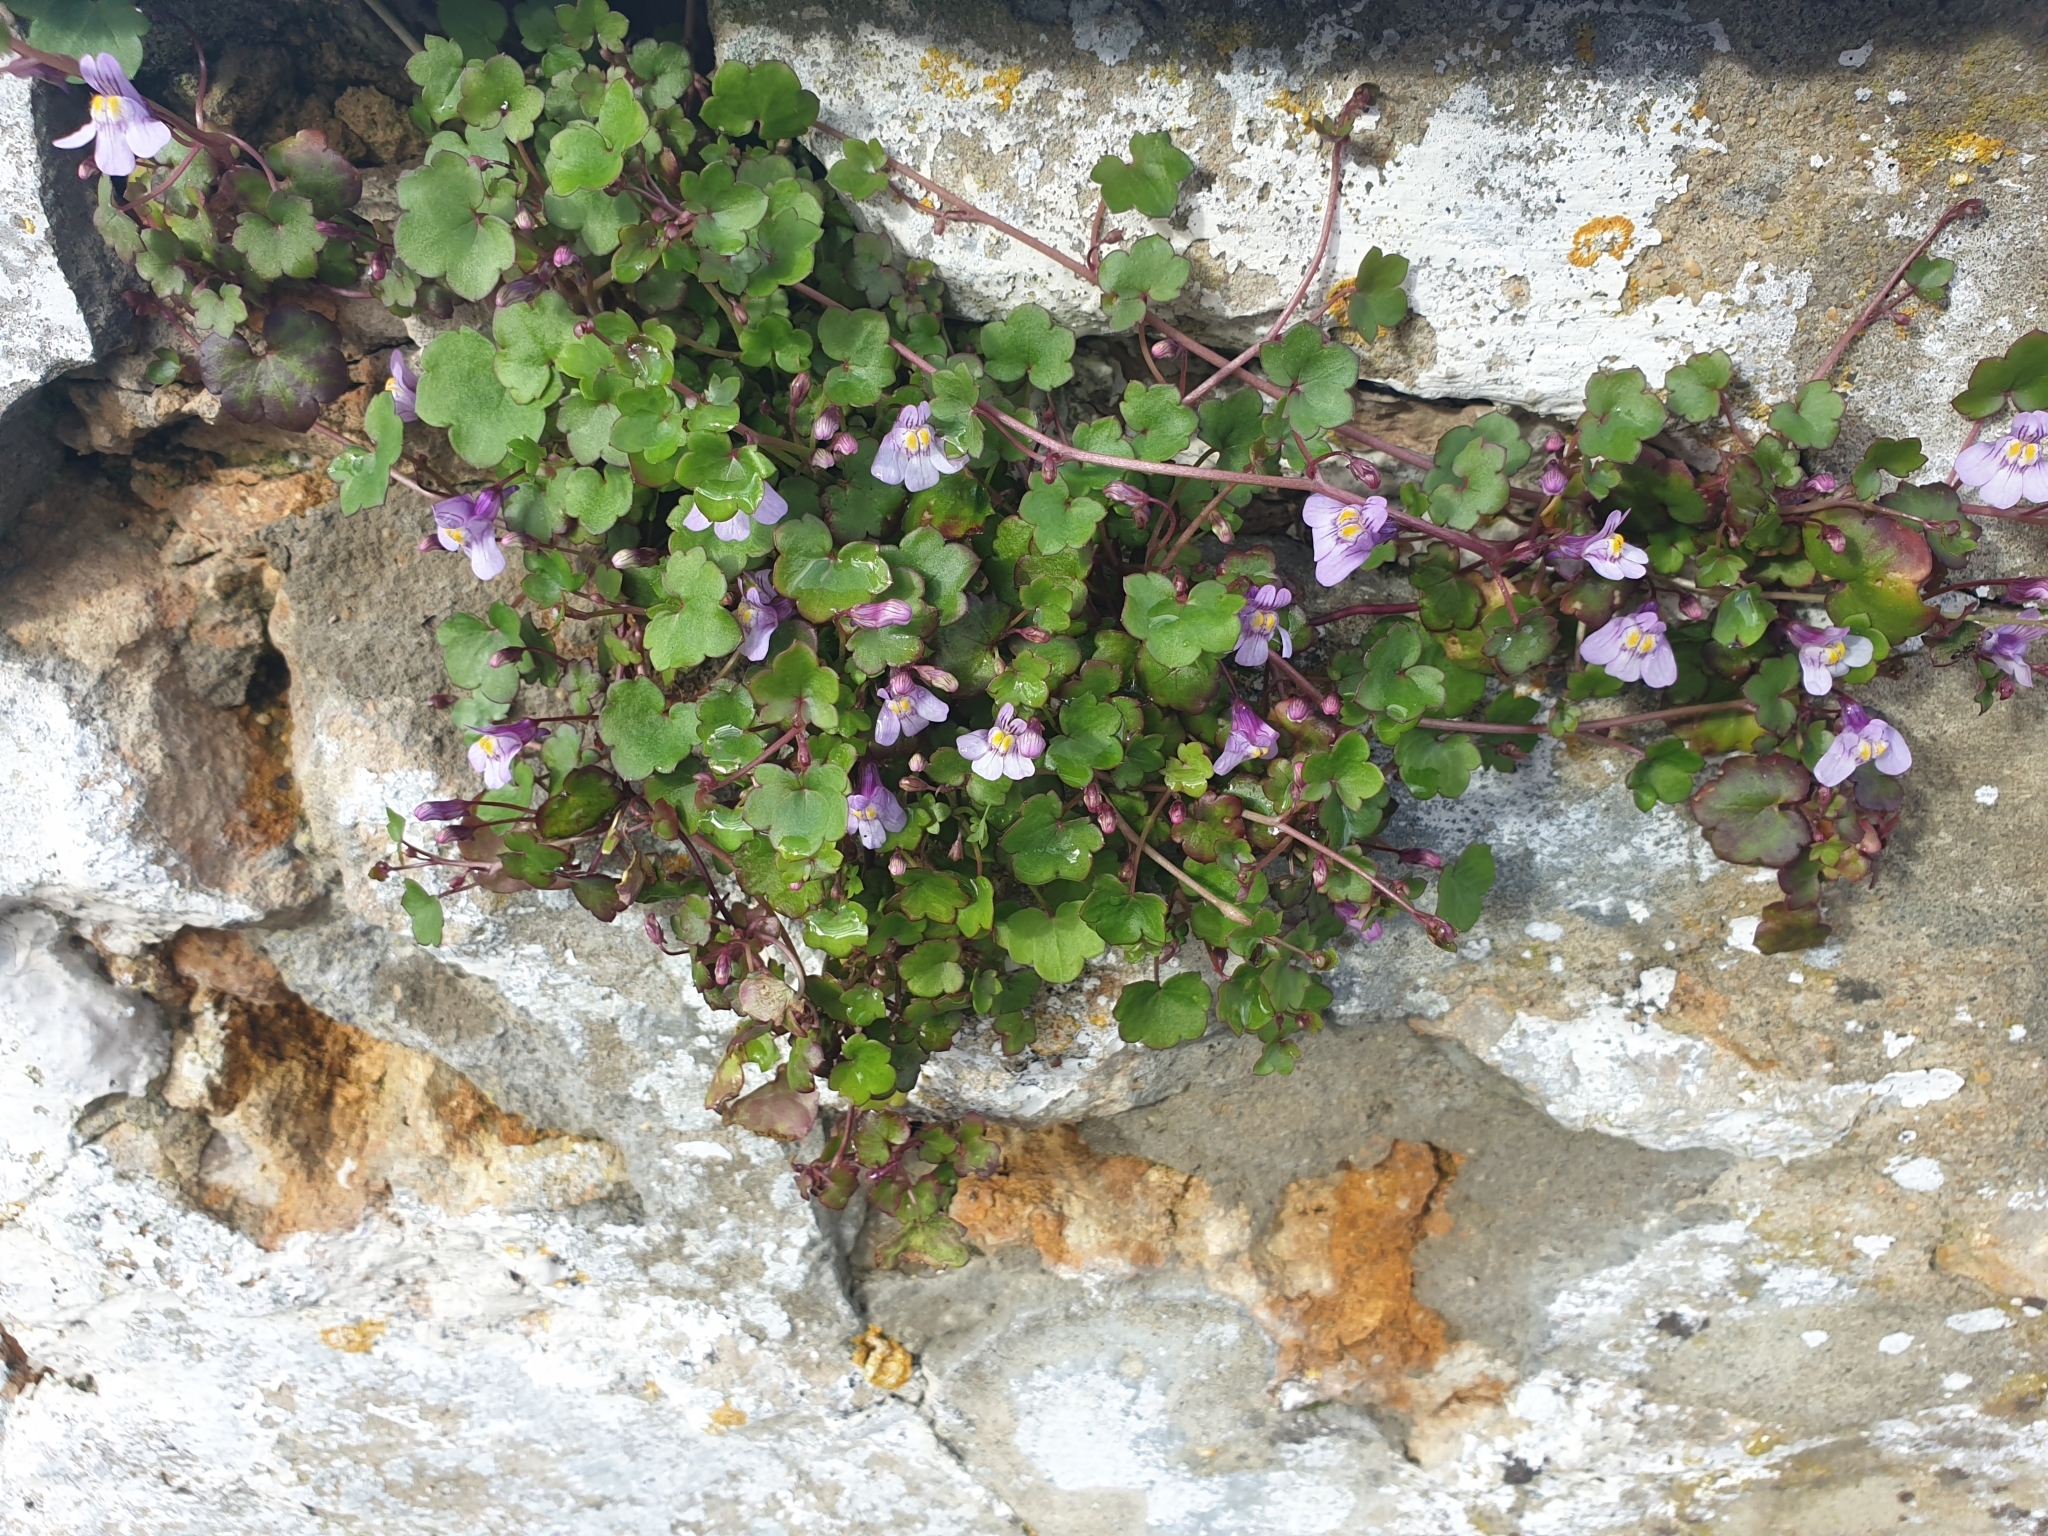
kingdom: Plantae
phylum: Tracheophyta
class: Magnoliopsida
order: Lamiales
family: Plantaginaceae
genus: Cymbalaria
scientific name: Cymbalaria muralis
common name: Ivy-leaved toadflax
